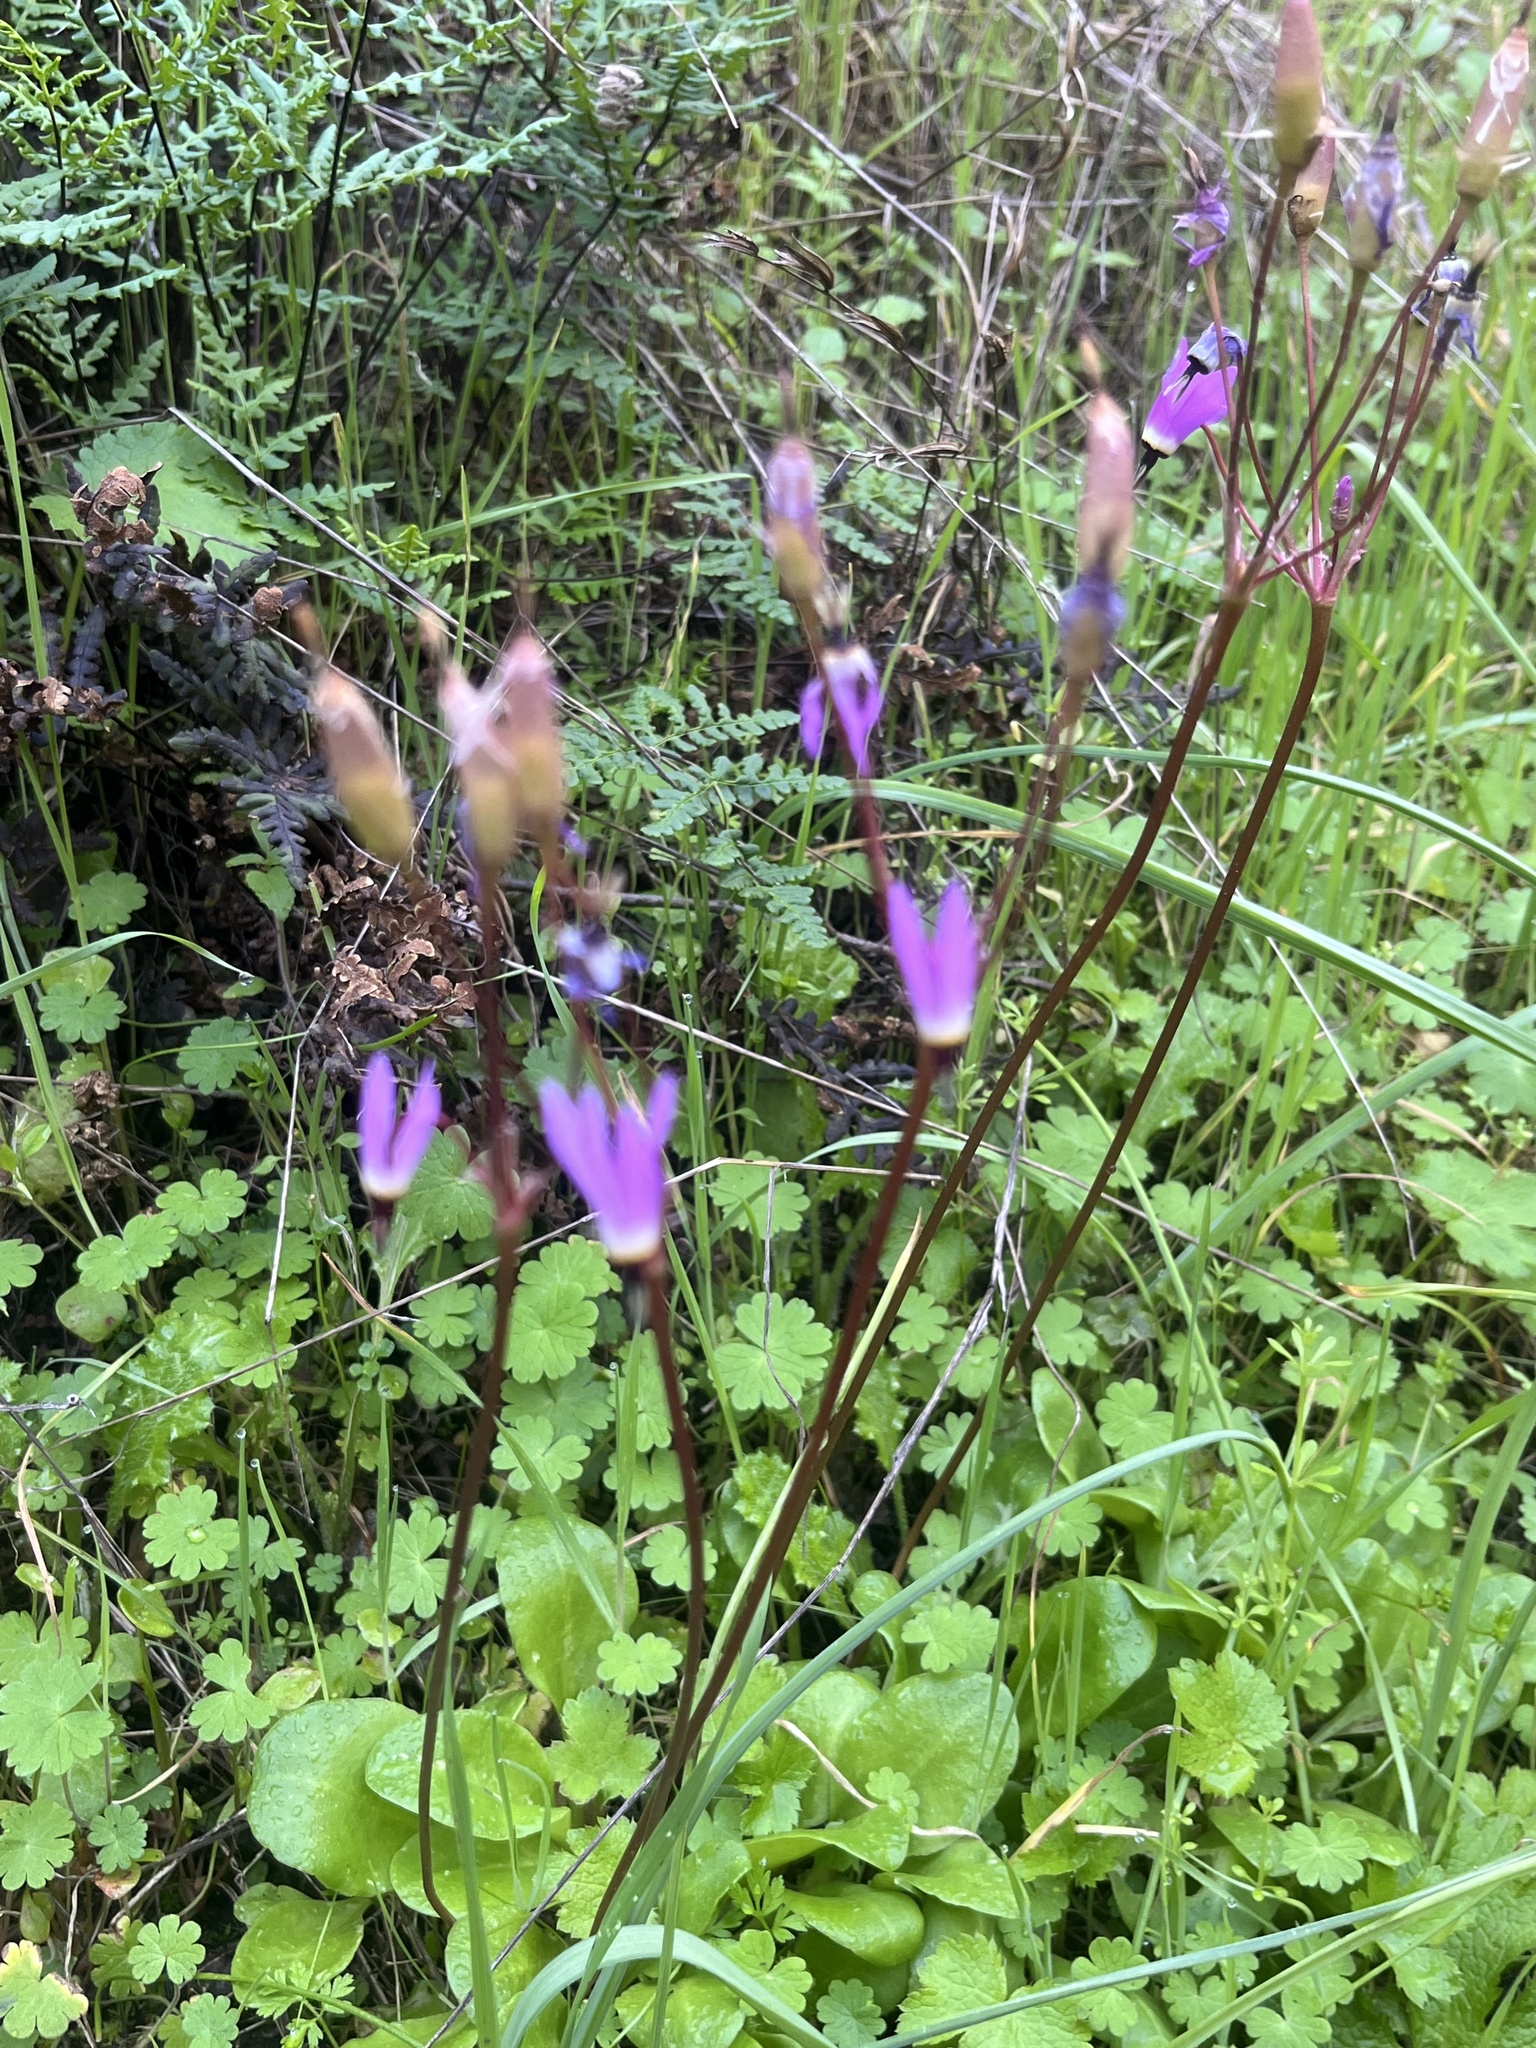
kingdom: Plantae
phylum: Tracheophyta
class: Magnoliopsida
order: Ericales
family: Primulaceae
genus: Dodecatheon
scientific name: Dodecatheon hendersonii
